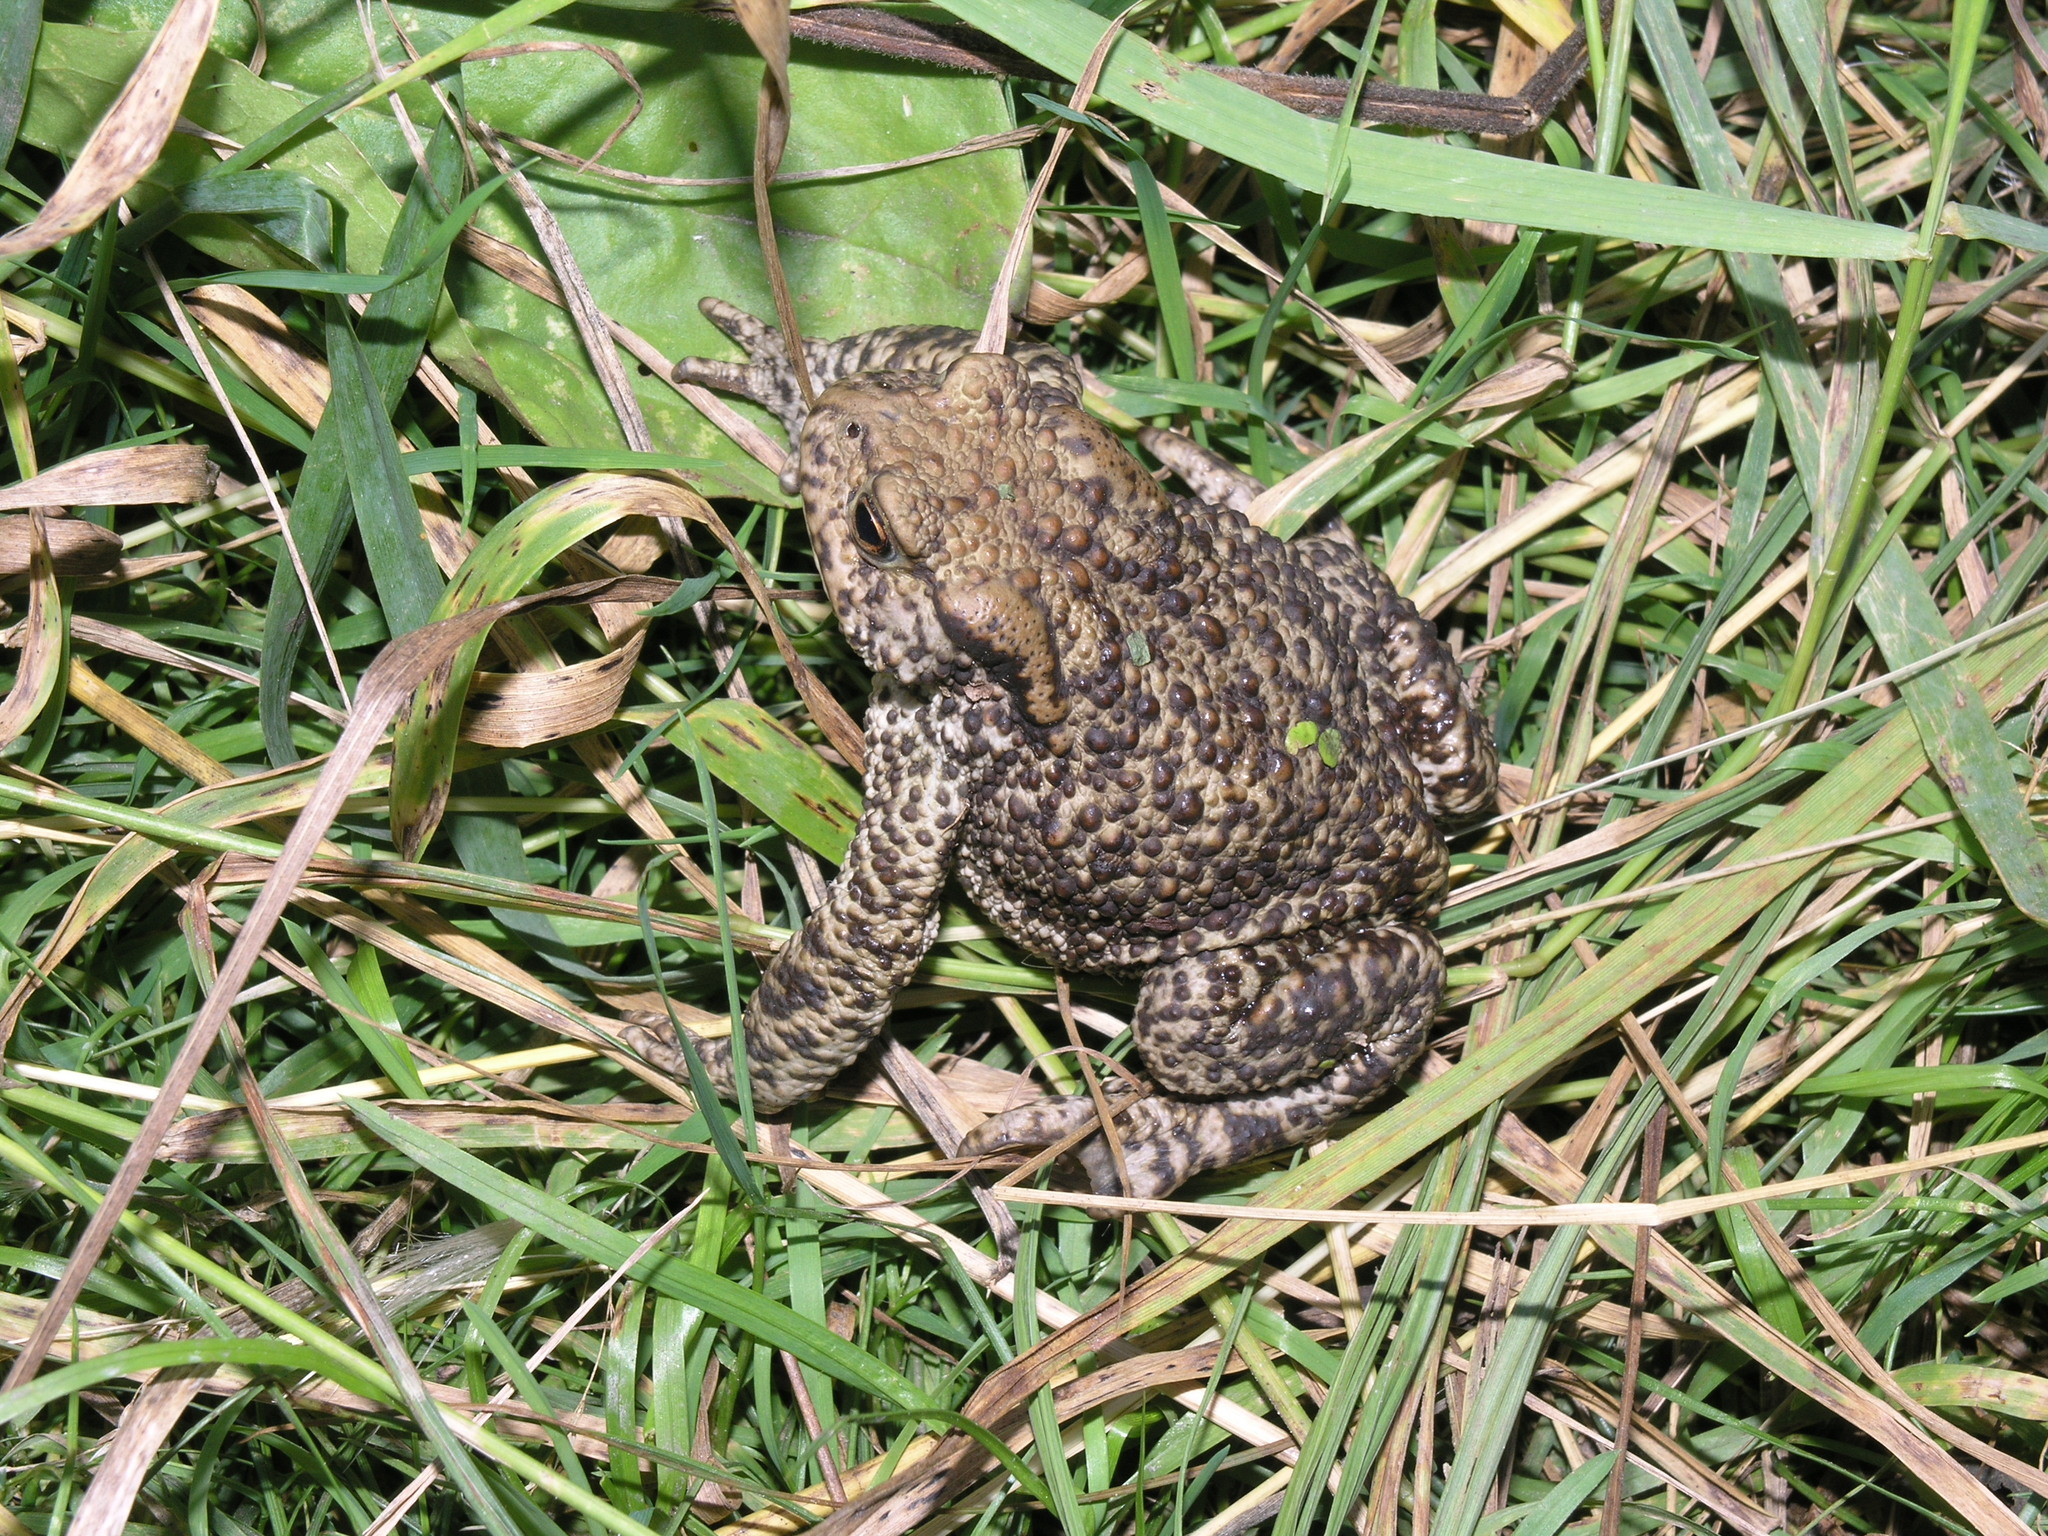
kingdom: Animalia
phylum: Chordata
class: Amphibia
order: Anura
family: Bufonidae
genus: Bufo
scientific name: Bufo bufo
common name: Common toad
